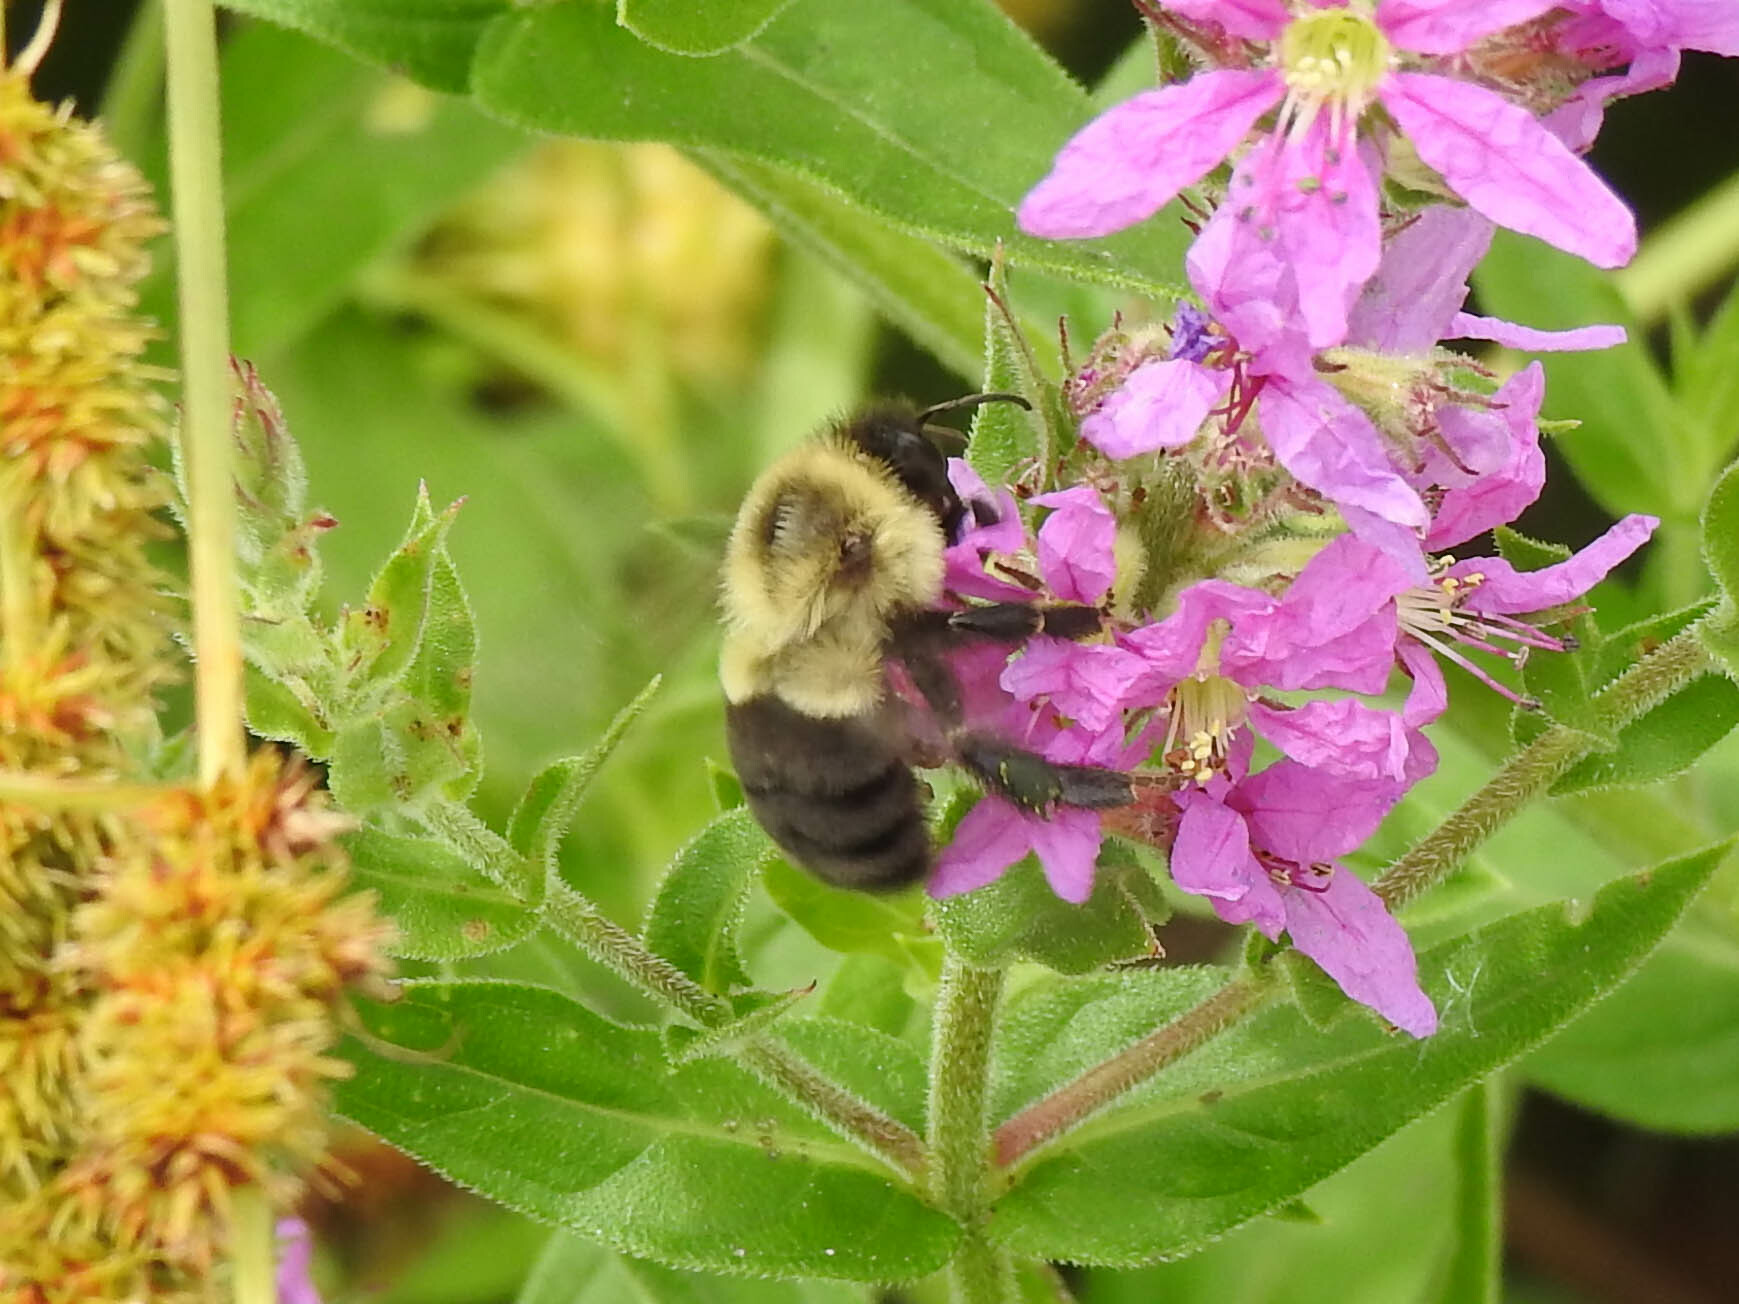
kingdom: Animalia
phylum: Arthropoda
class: Insecta
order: Hymenoptera
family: Apidae
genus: Bombus
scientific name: Bombus impatiens
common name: Common eastern bumble bee
